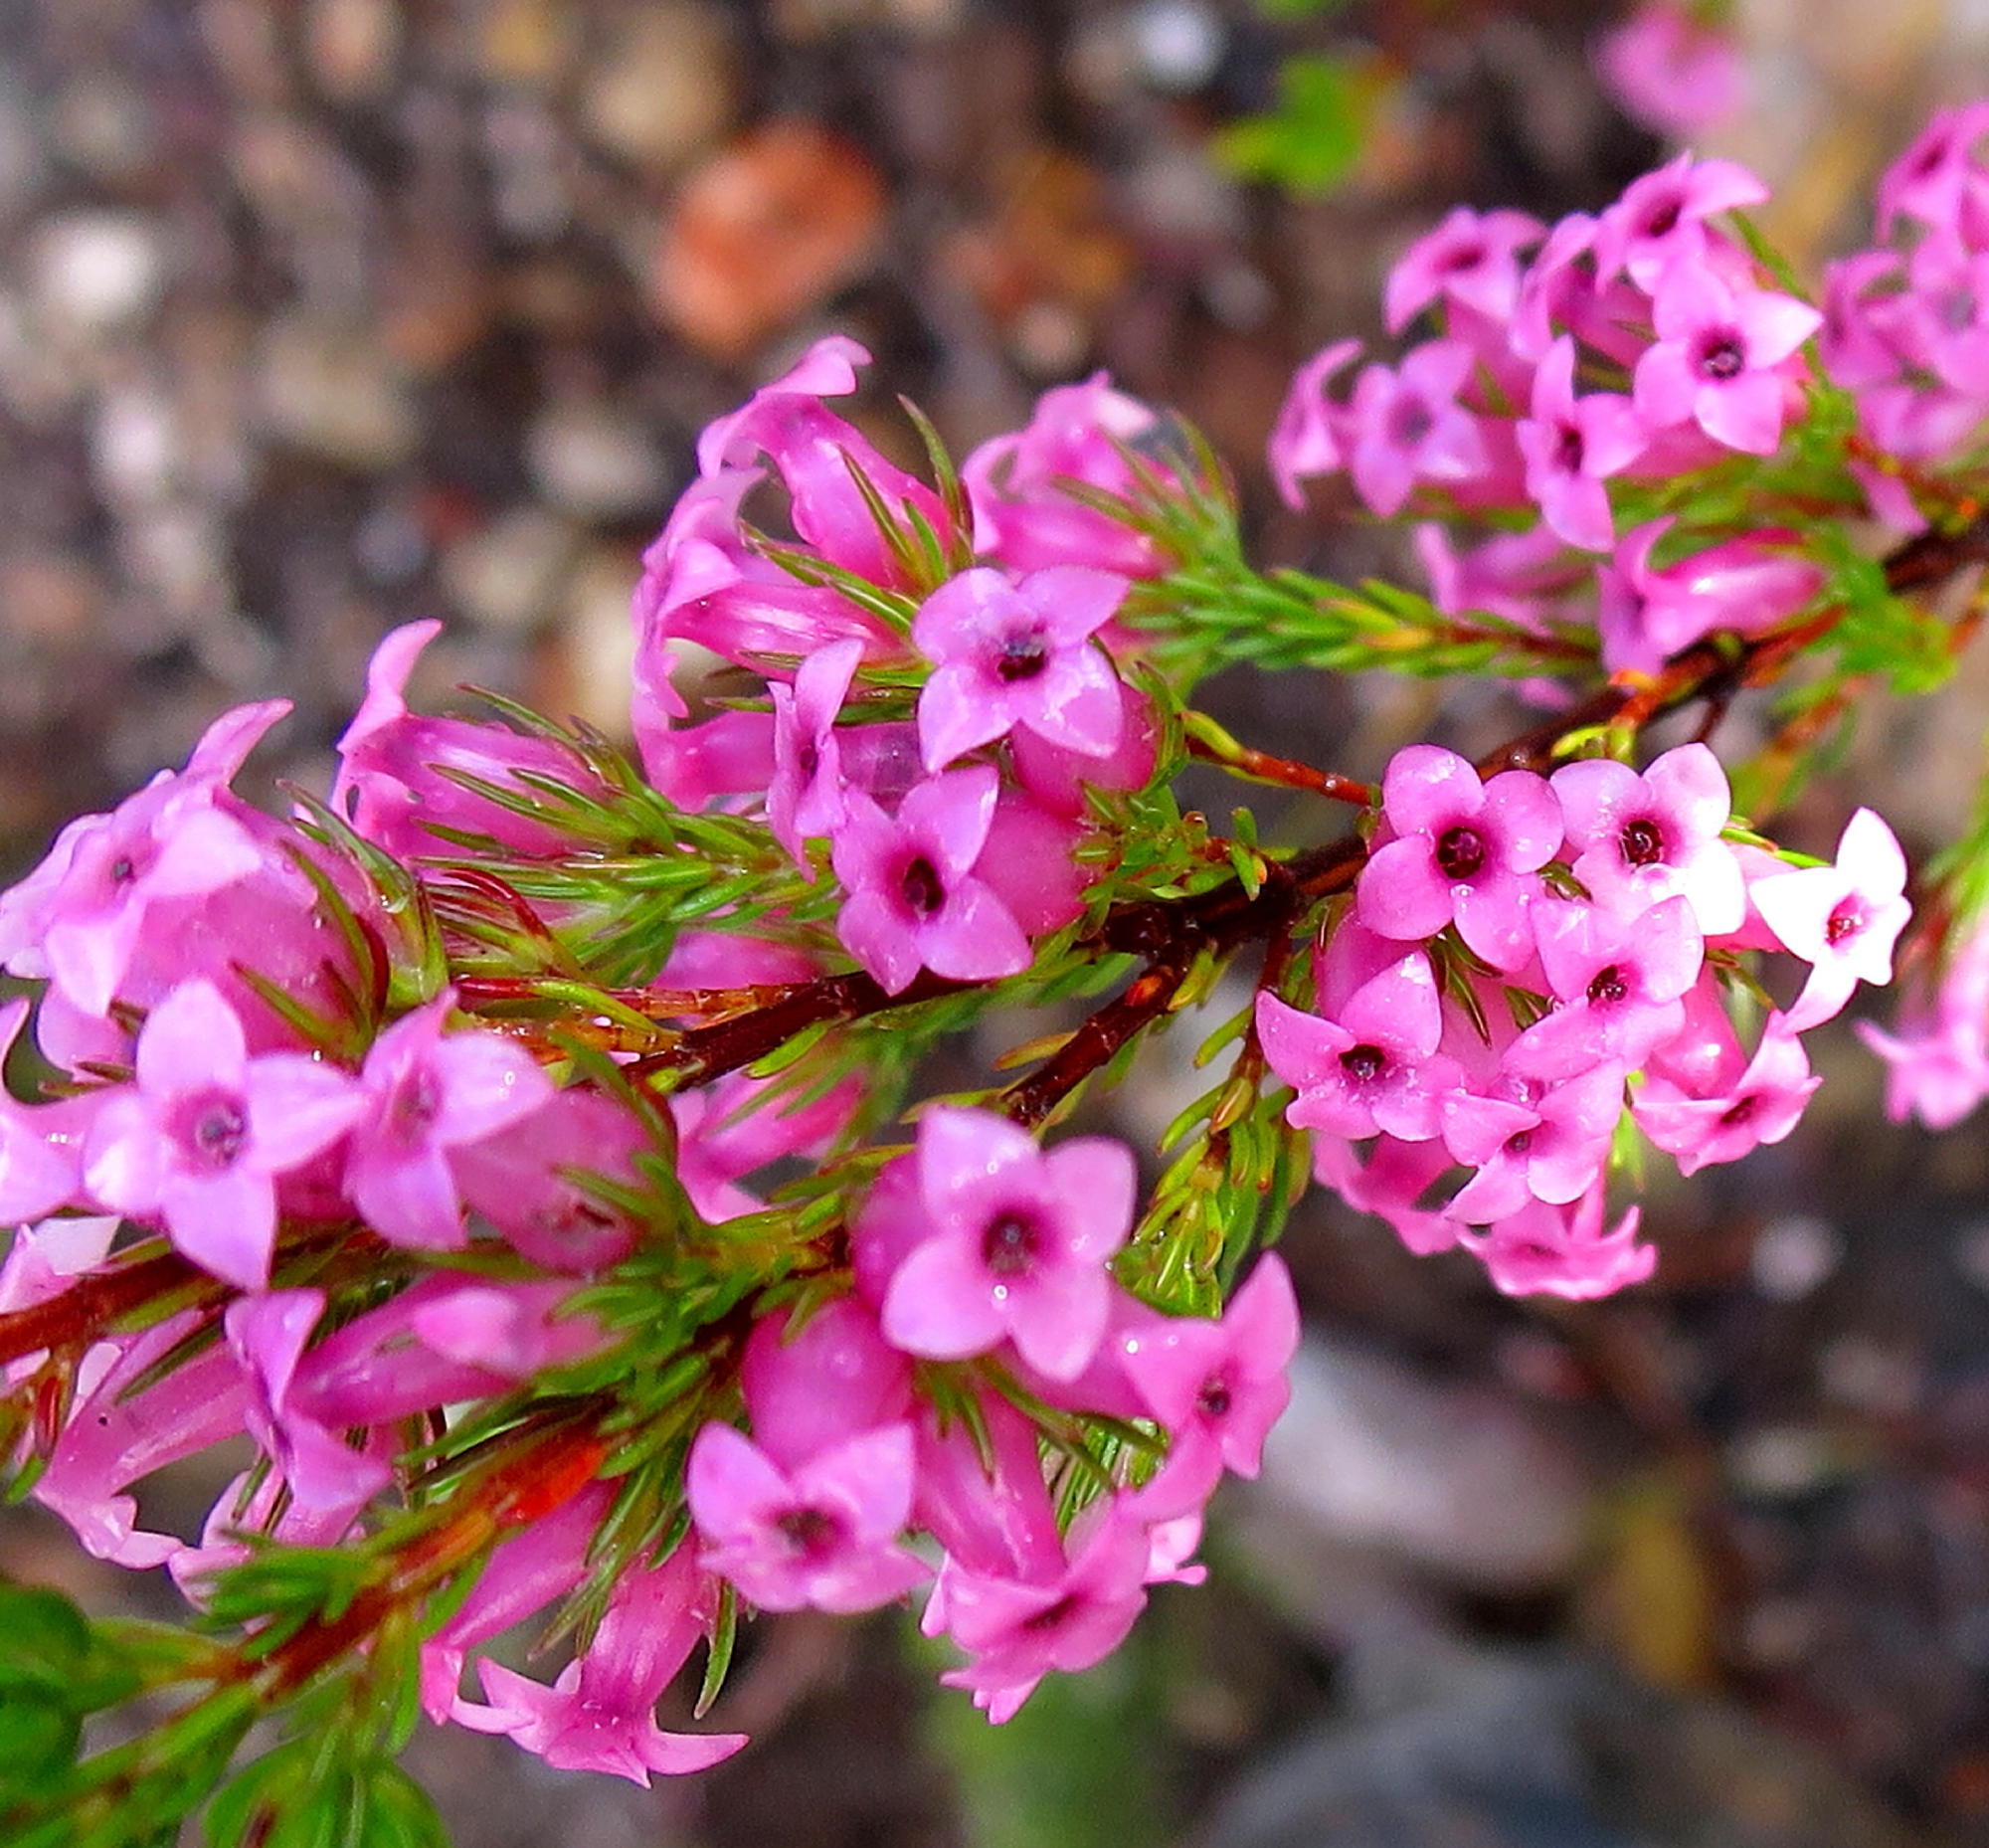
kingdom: Plantae
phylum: Tracheophyta
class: Magnoliopsida
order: Ericales
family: Ericaceae
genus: Erica
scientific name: Erica daphniflora
